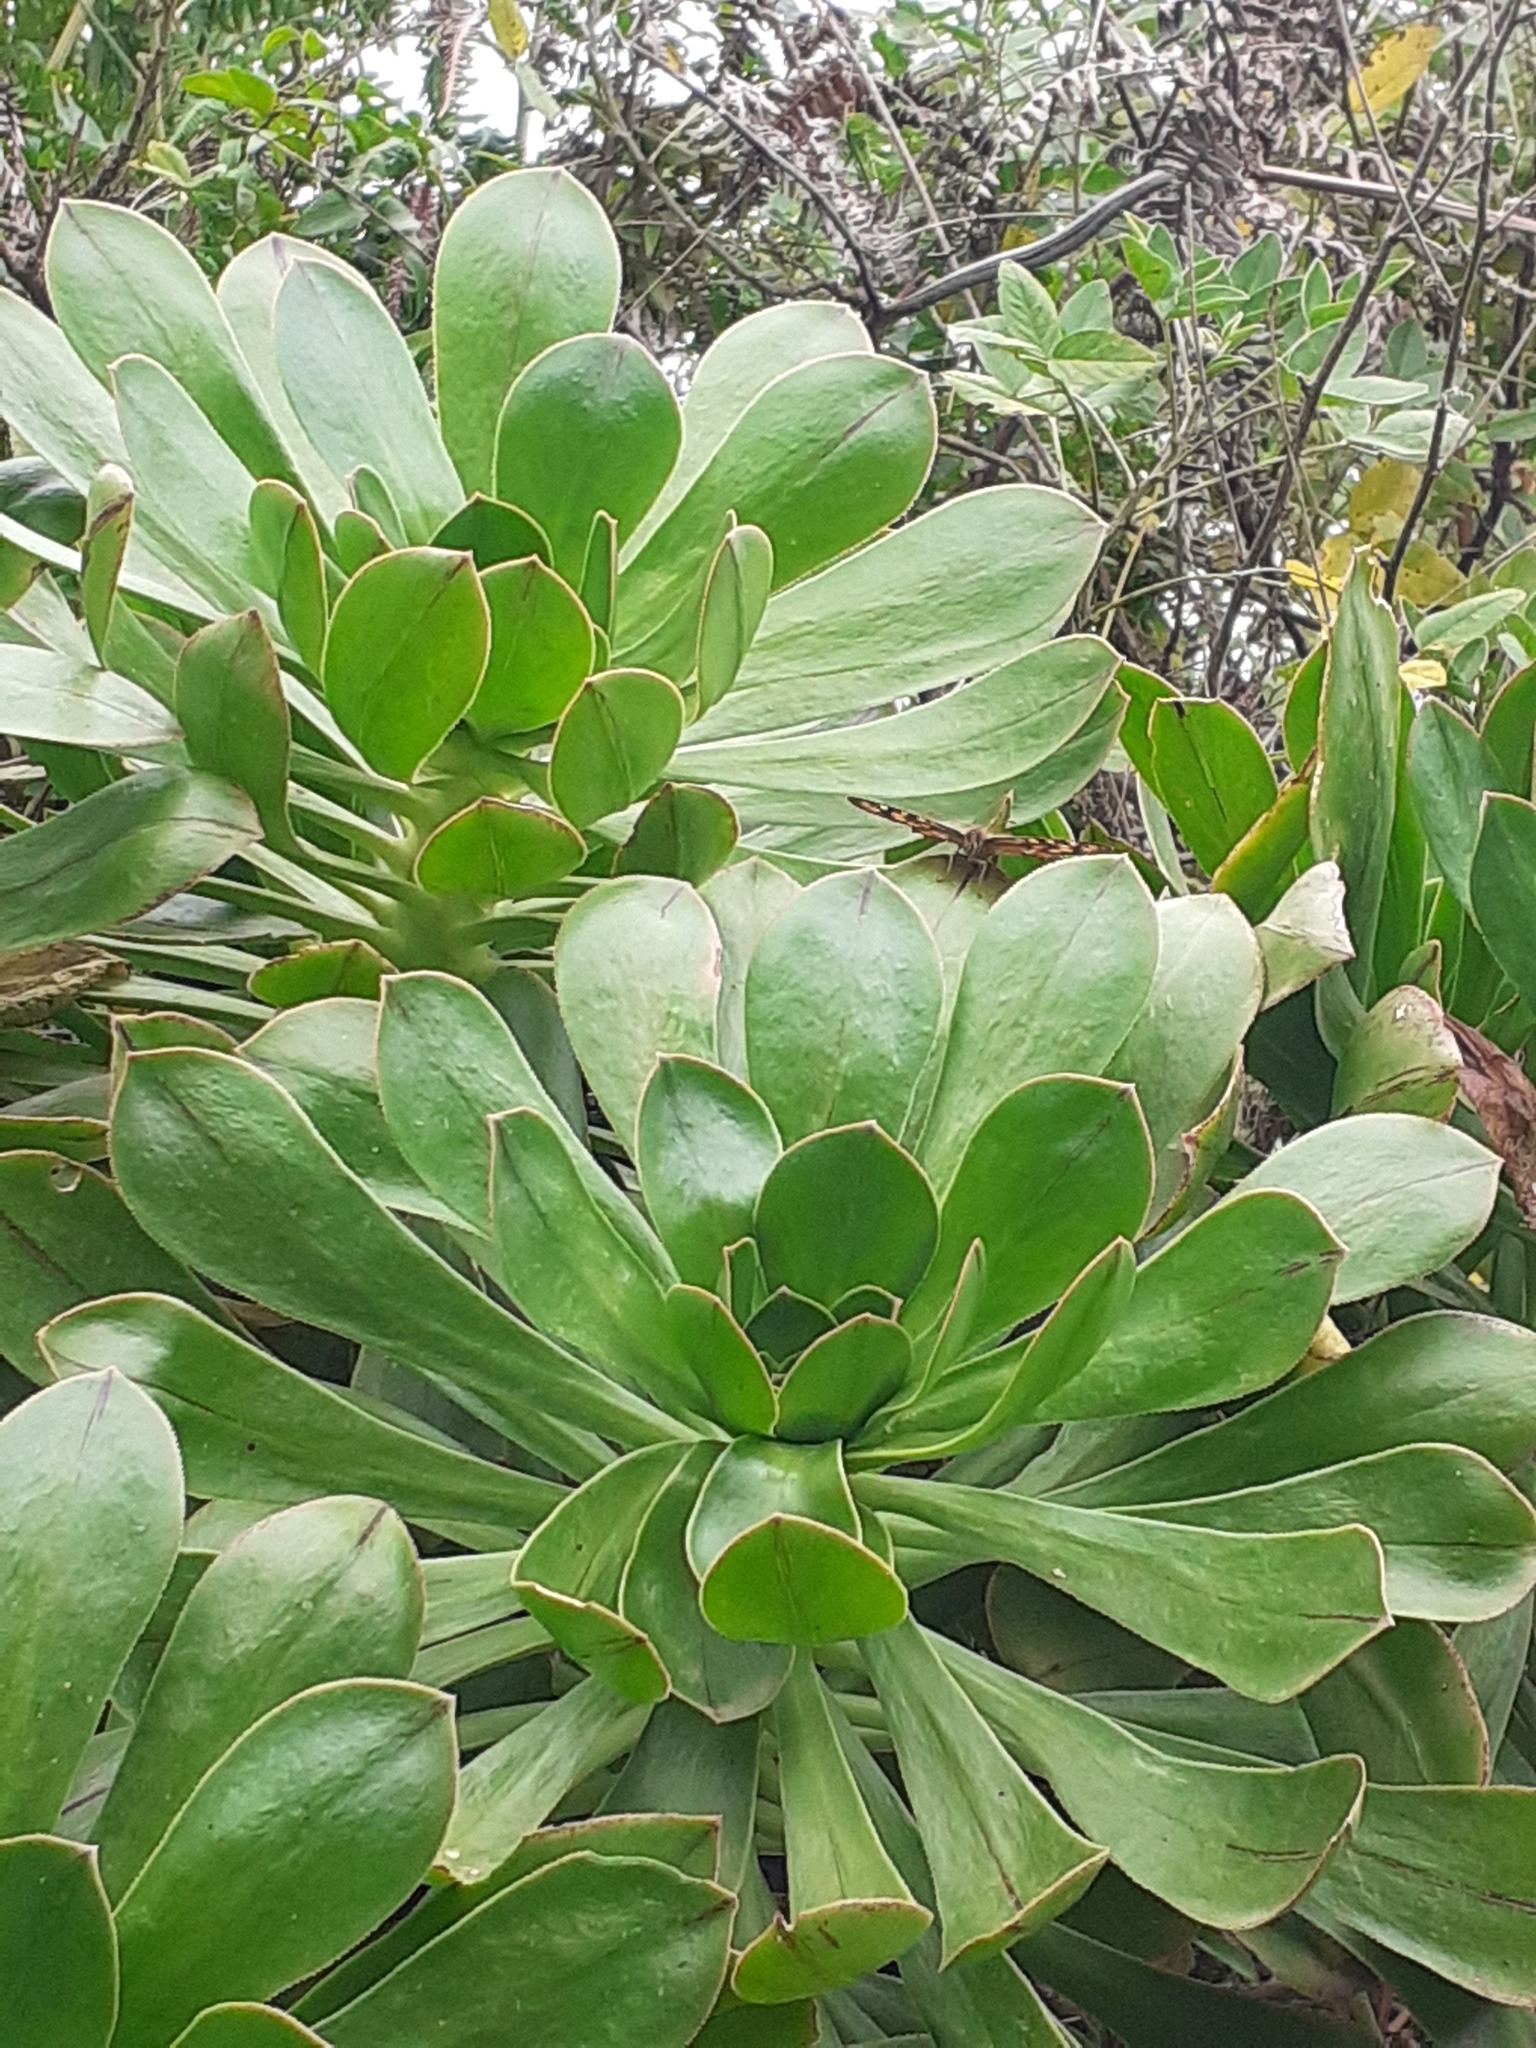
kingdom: Animalia
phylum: Arthropoda
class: Insecta
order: Lepidoptera
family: Nymphalidae
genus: Pararge
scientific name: Pararge aegeria
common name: Speckled wood
